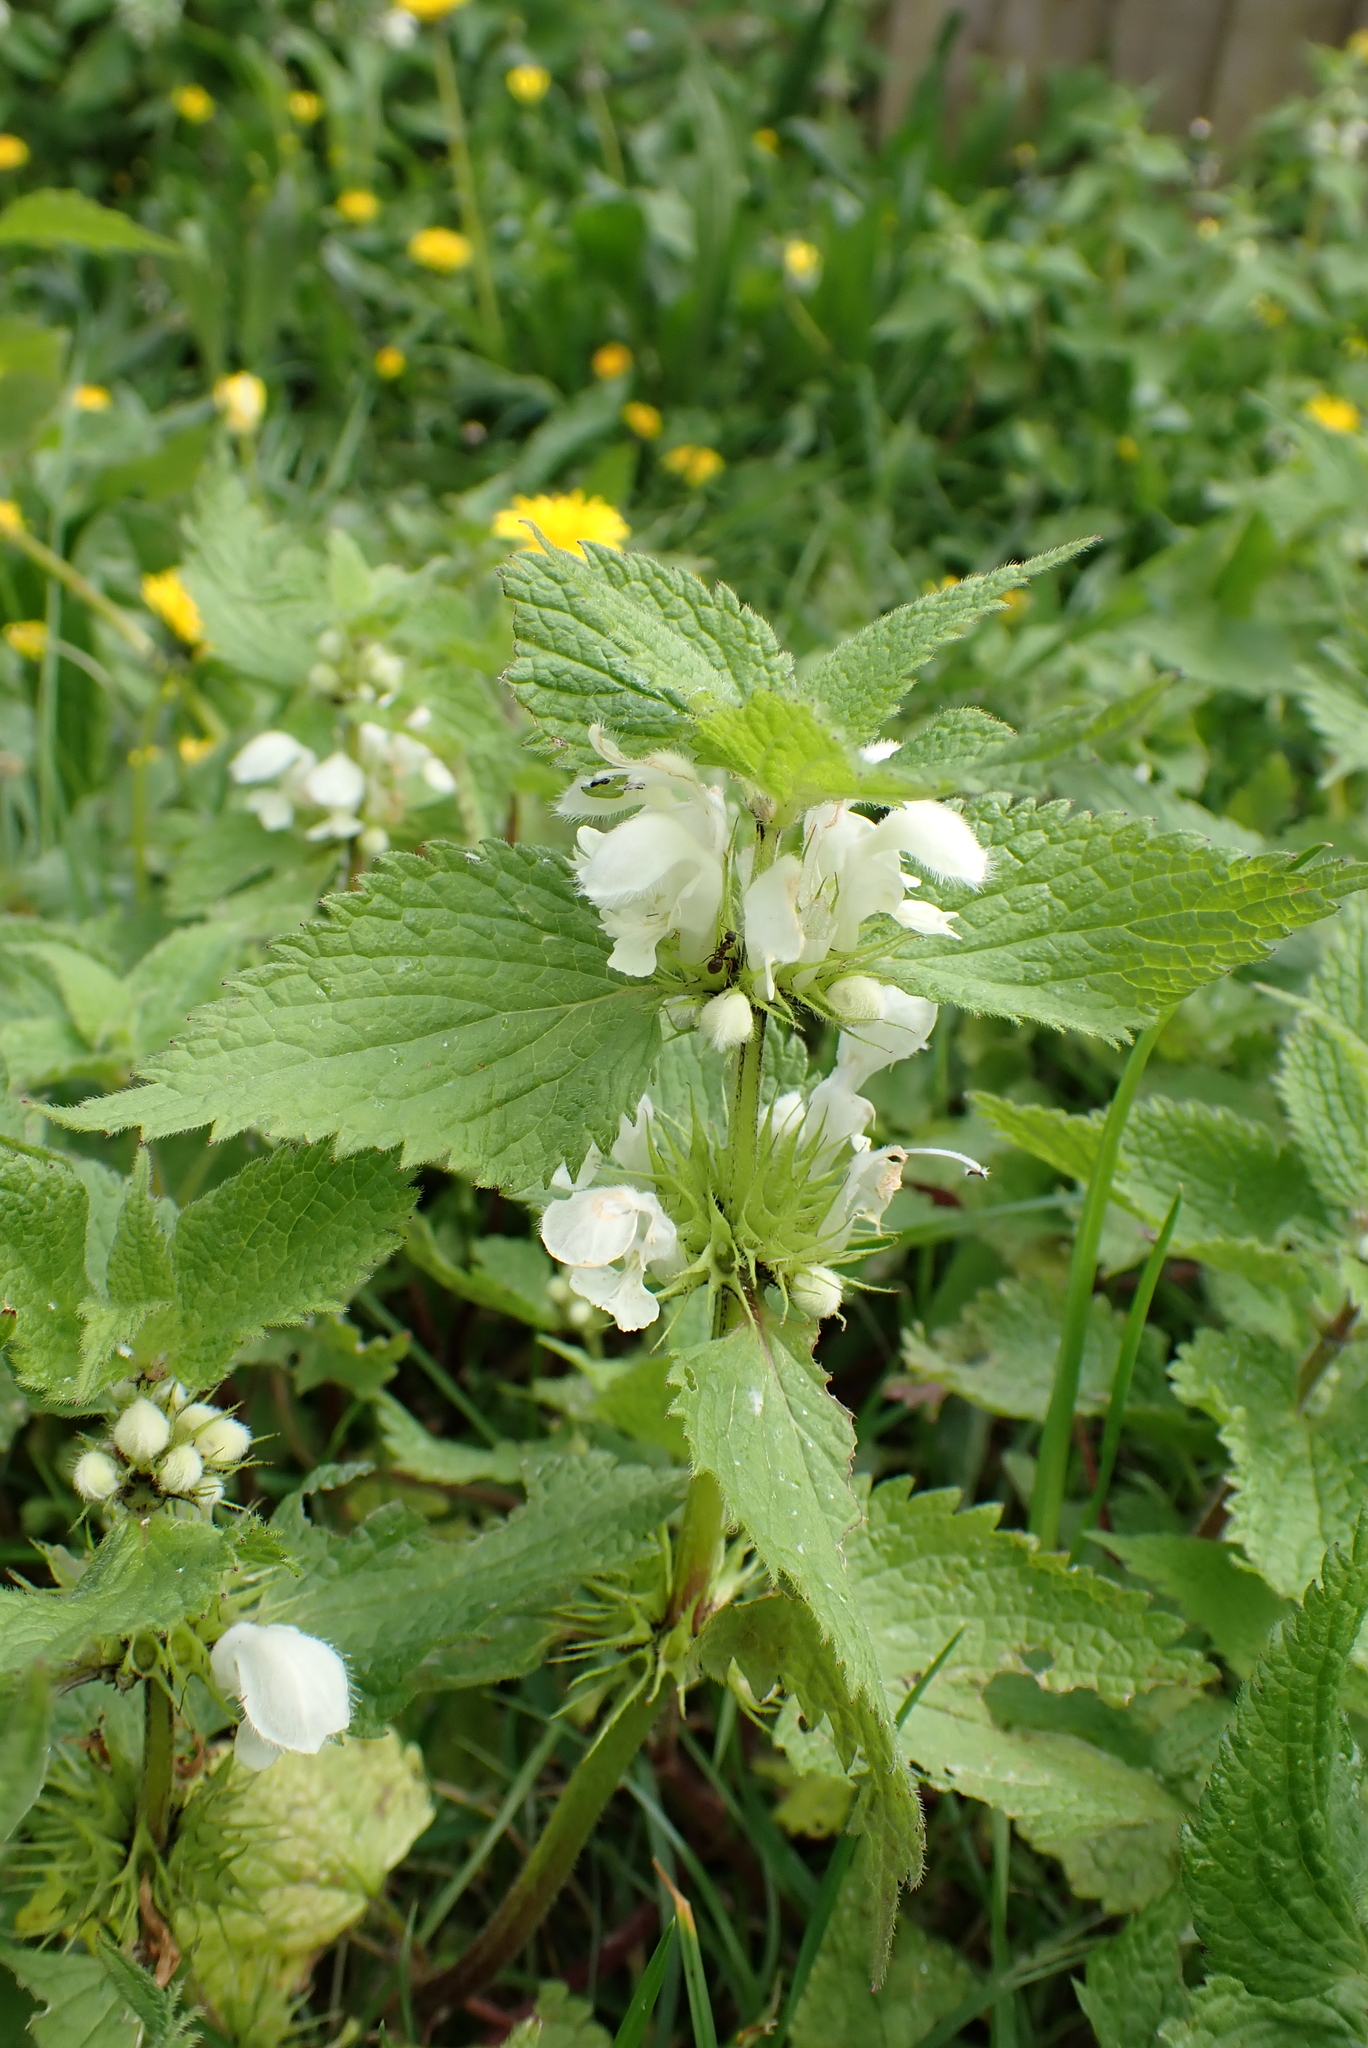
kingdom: Plantae
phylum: Tracheophyta
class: Magnoliopsida
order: Lamiales
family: Lamiaceae
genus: Lamium
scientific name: Lamium album
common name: White dead-nettle
